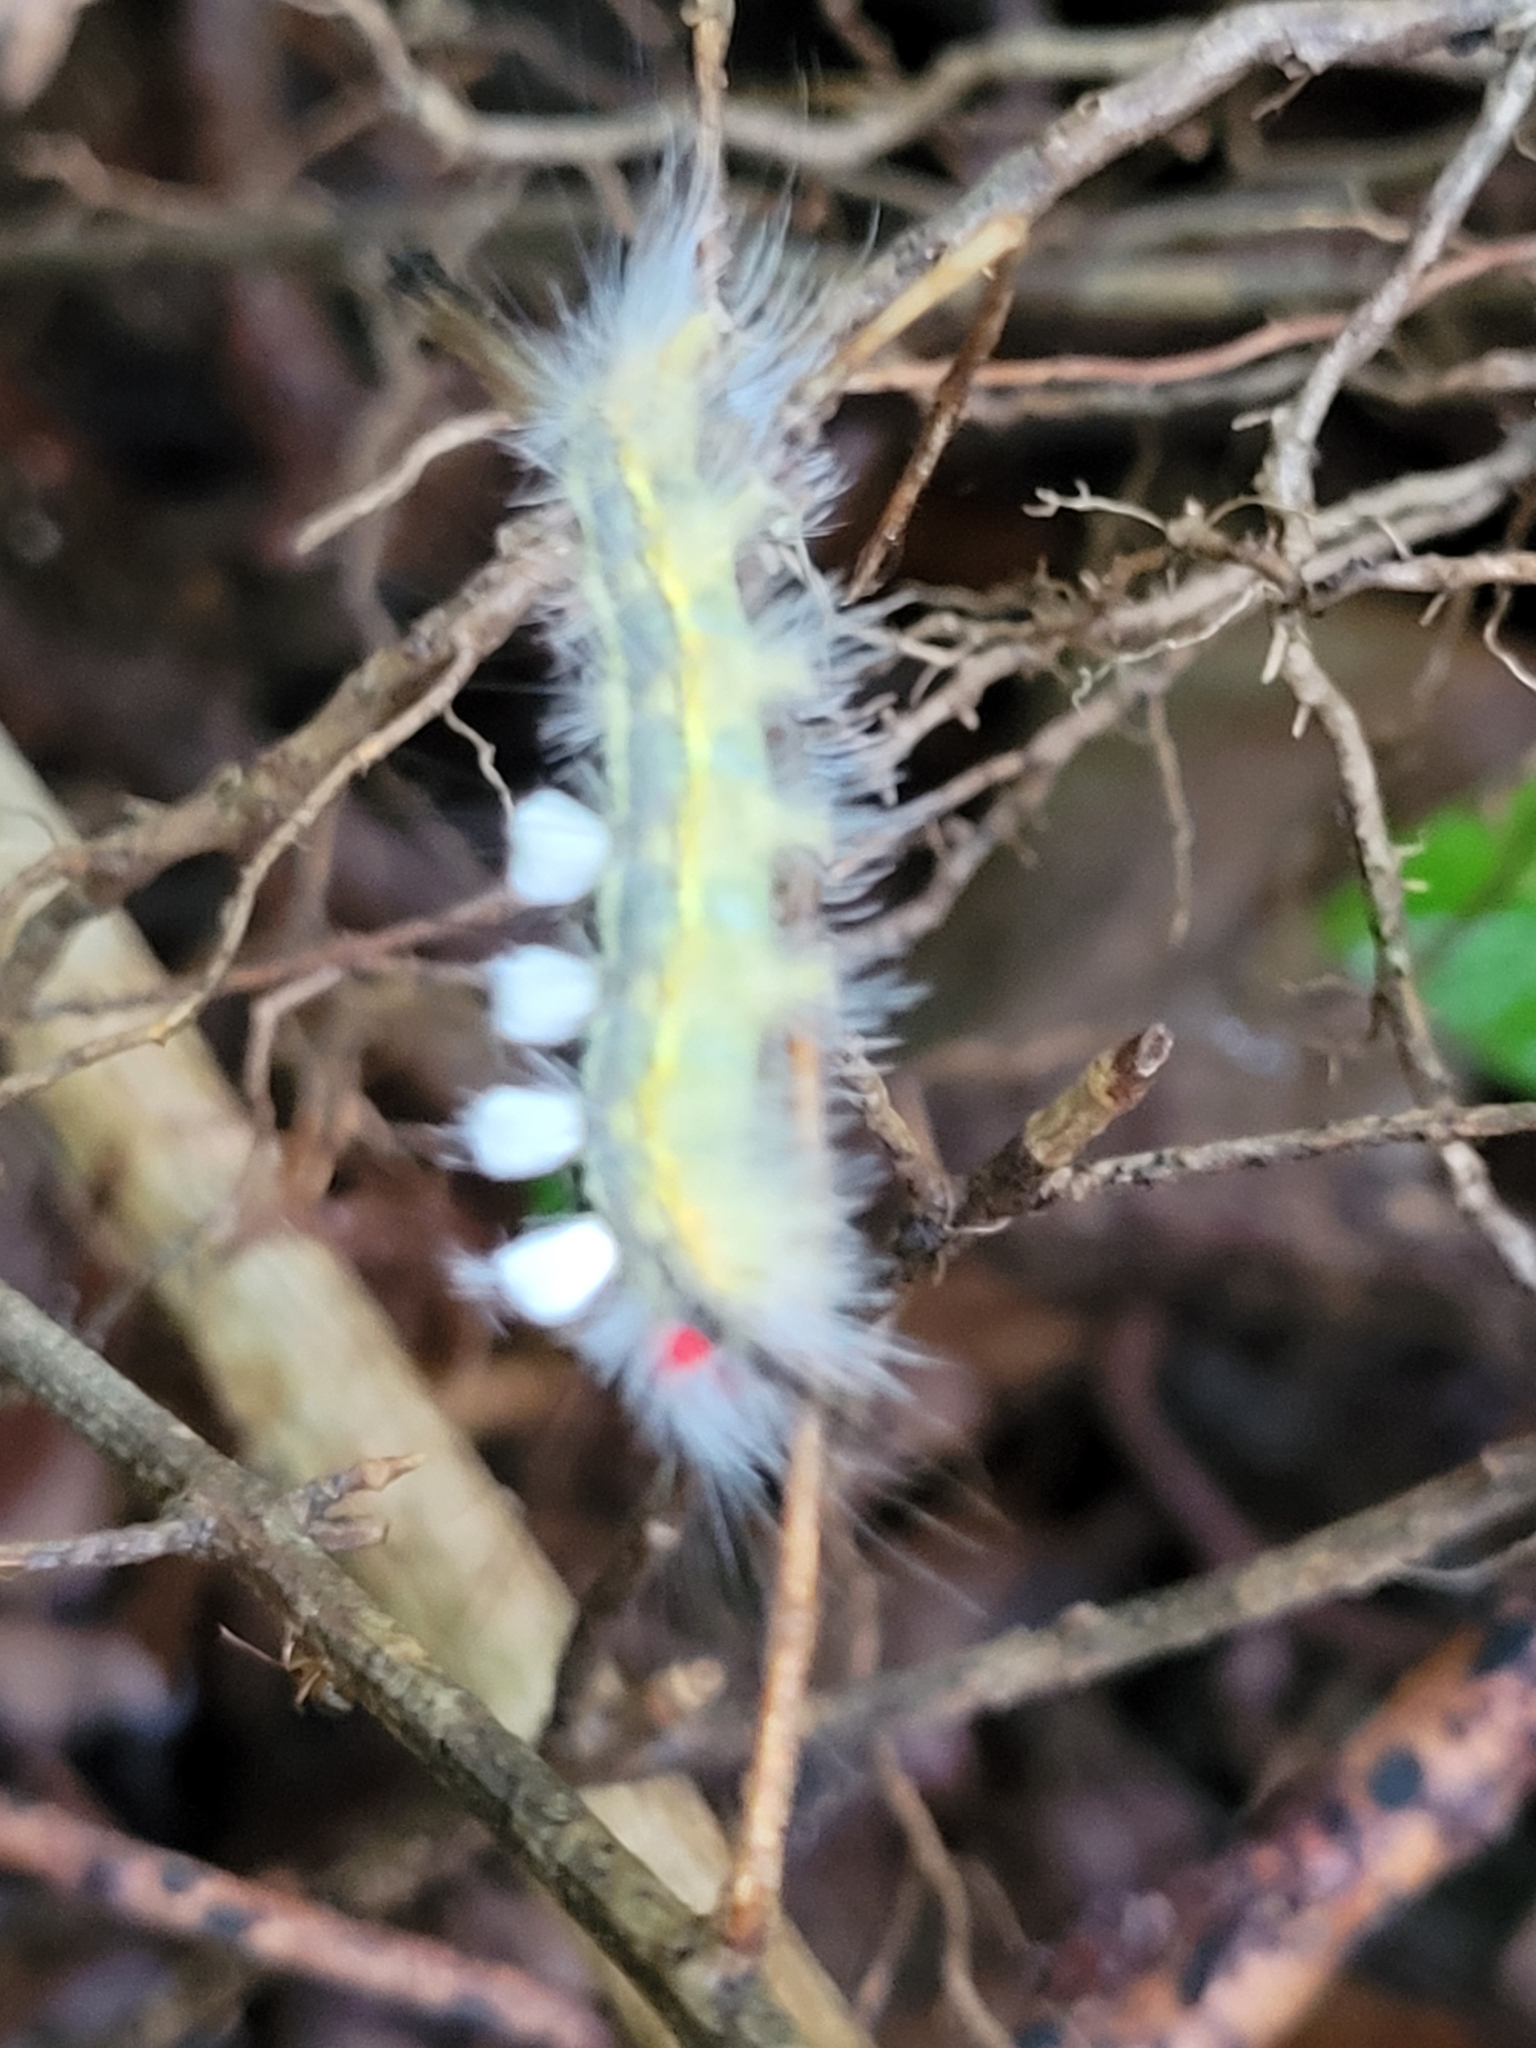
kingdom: Animalia
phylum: Arthropoda
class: Insecta
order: Lepidoptera
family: Erebidae
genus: Orgyia
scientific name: Orgyia leucostigma
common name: White-marked tussock moth
